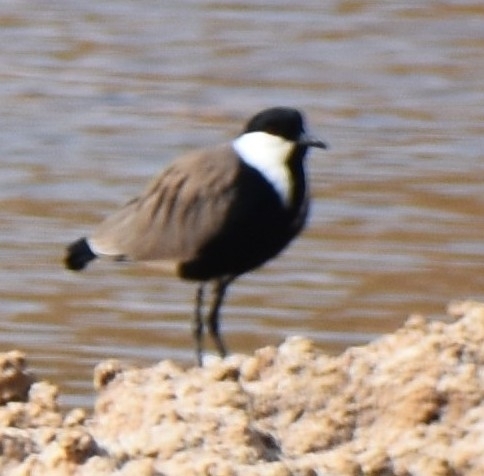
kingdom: Animalia
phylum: Chordata
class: Aves
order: Charadriiformes
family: Charadriidae
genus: Vanellus
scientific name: Vanellus spinosus
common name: Spur-winged lapwing
